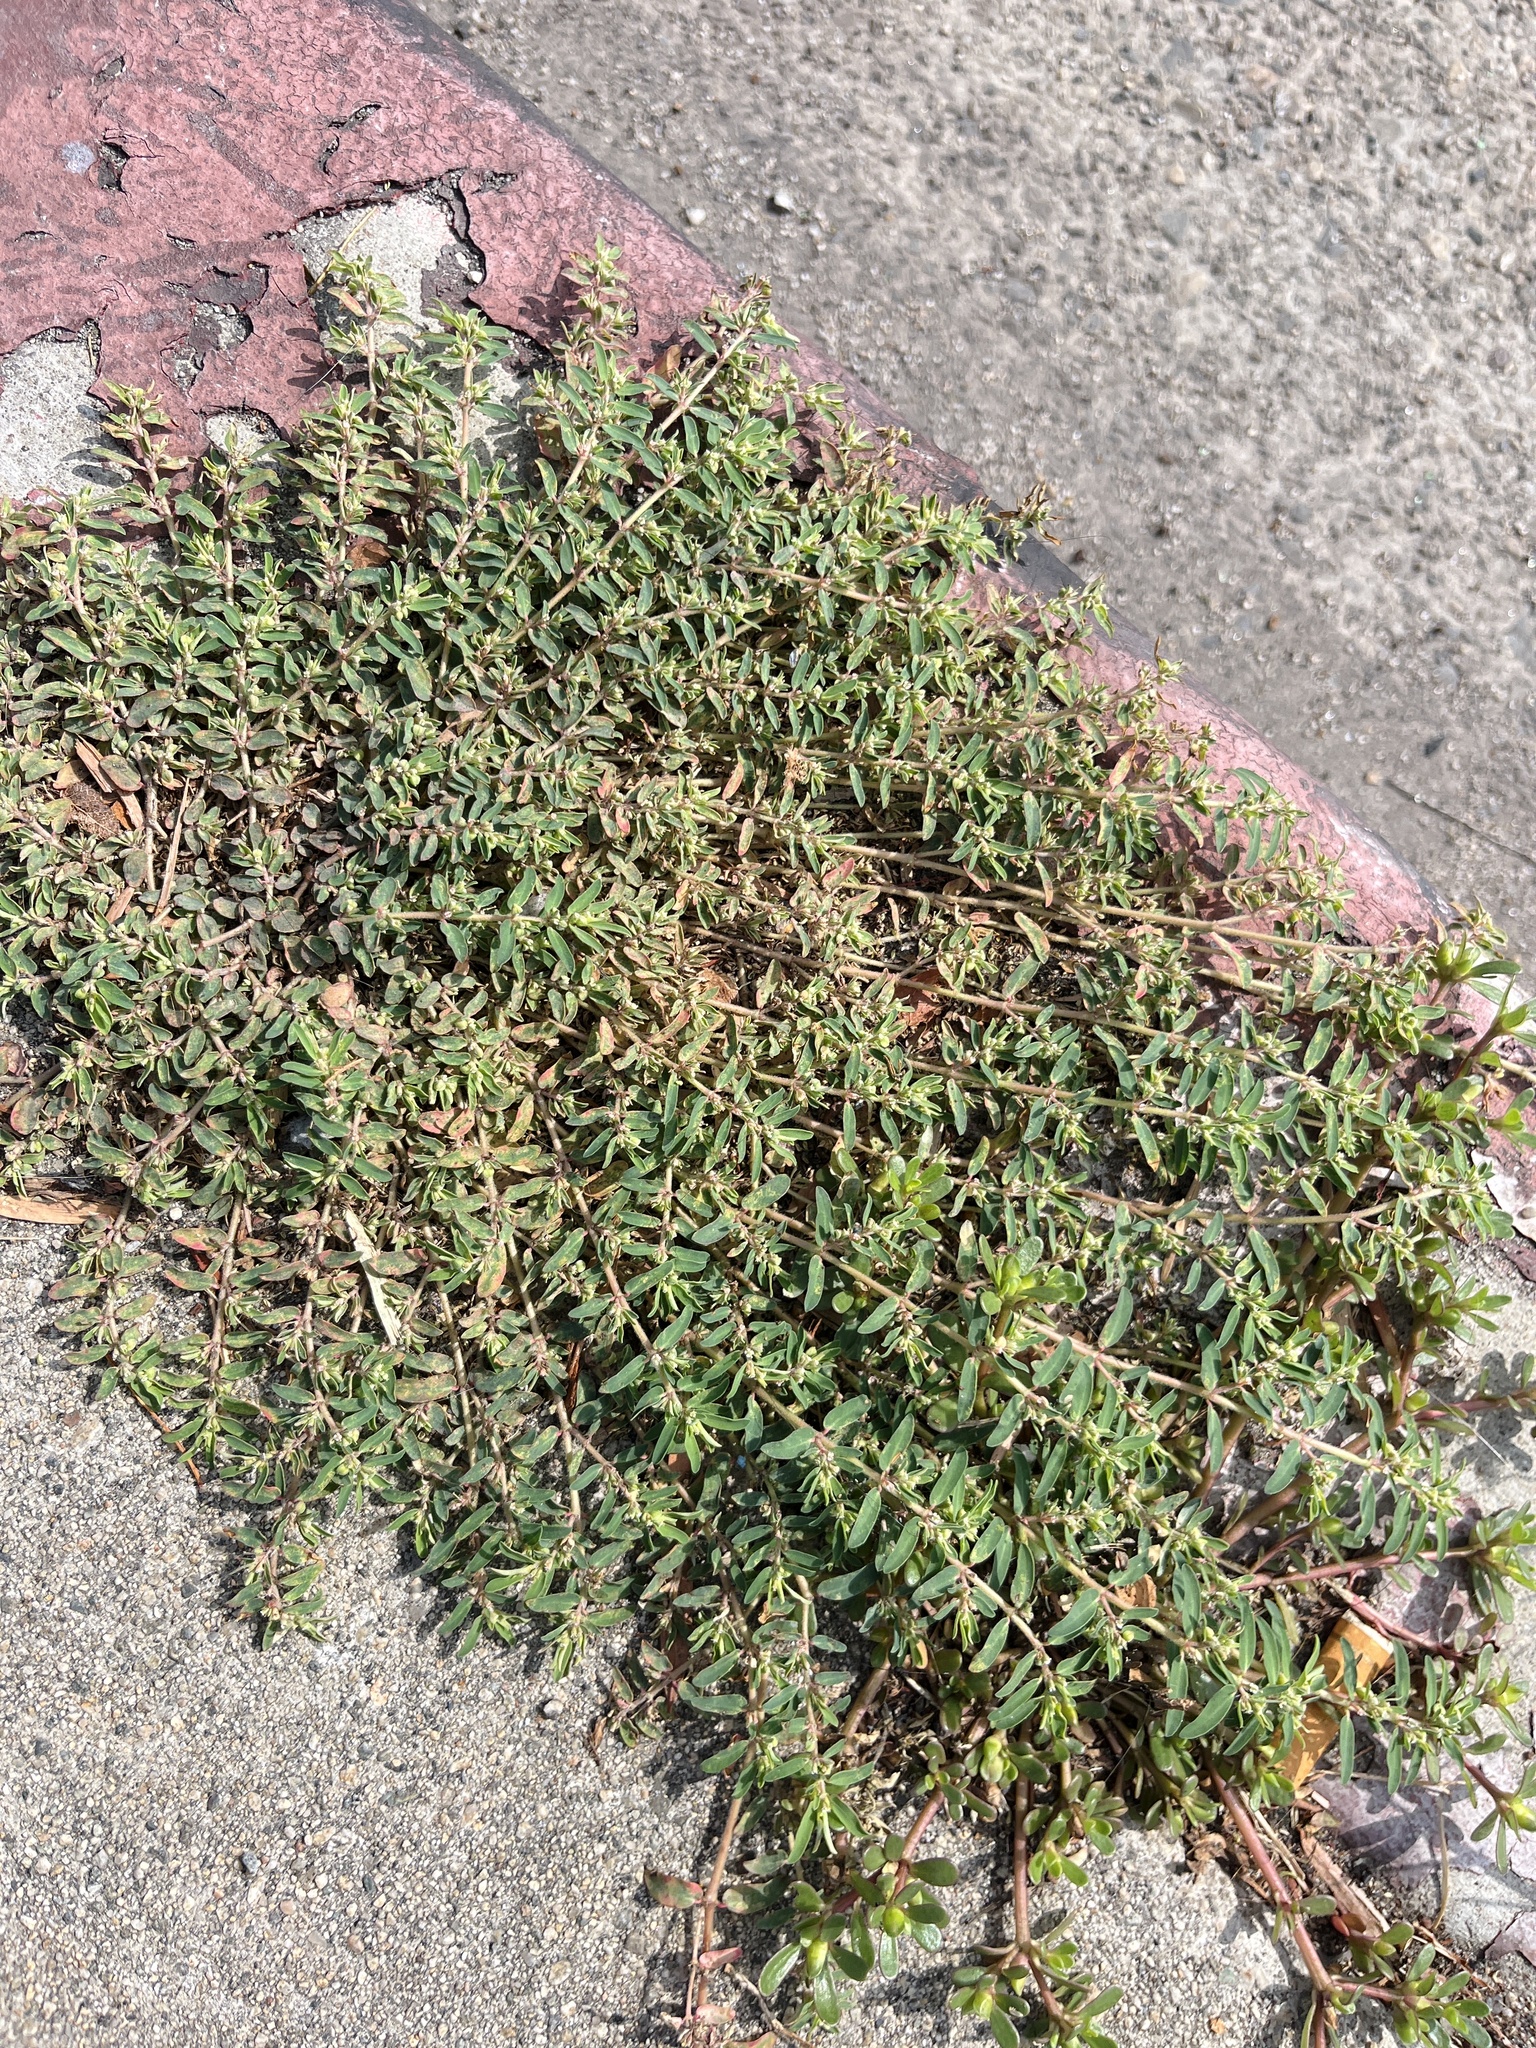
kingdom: Plantae
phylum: Tracheophyta
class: Magnoliopsida
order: Malpighiales
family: Euphorbiaceae
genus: Euphorbia
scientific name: Euphorbia maculata
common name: Spotted spurge
